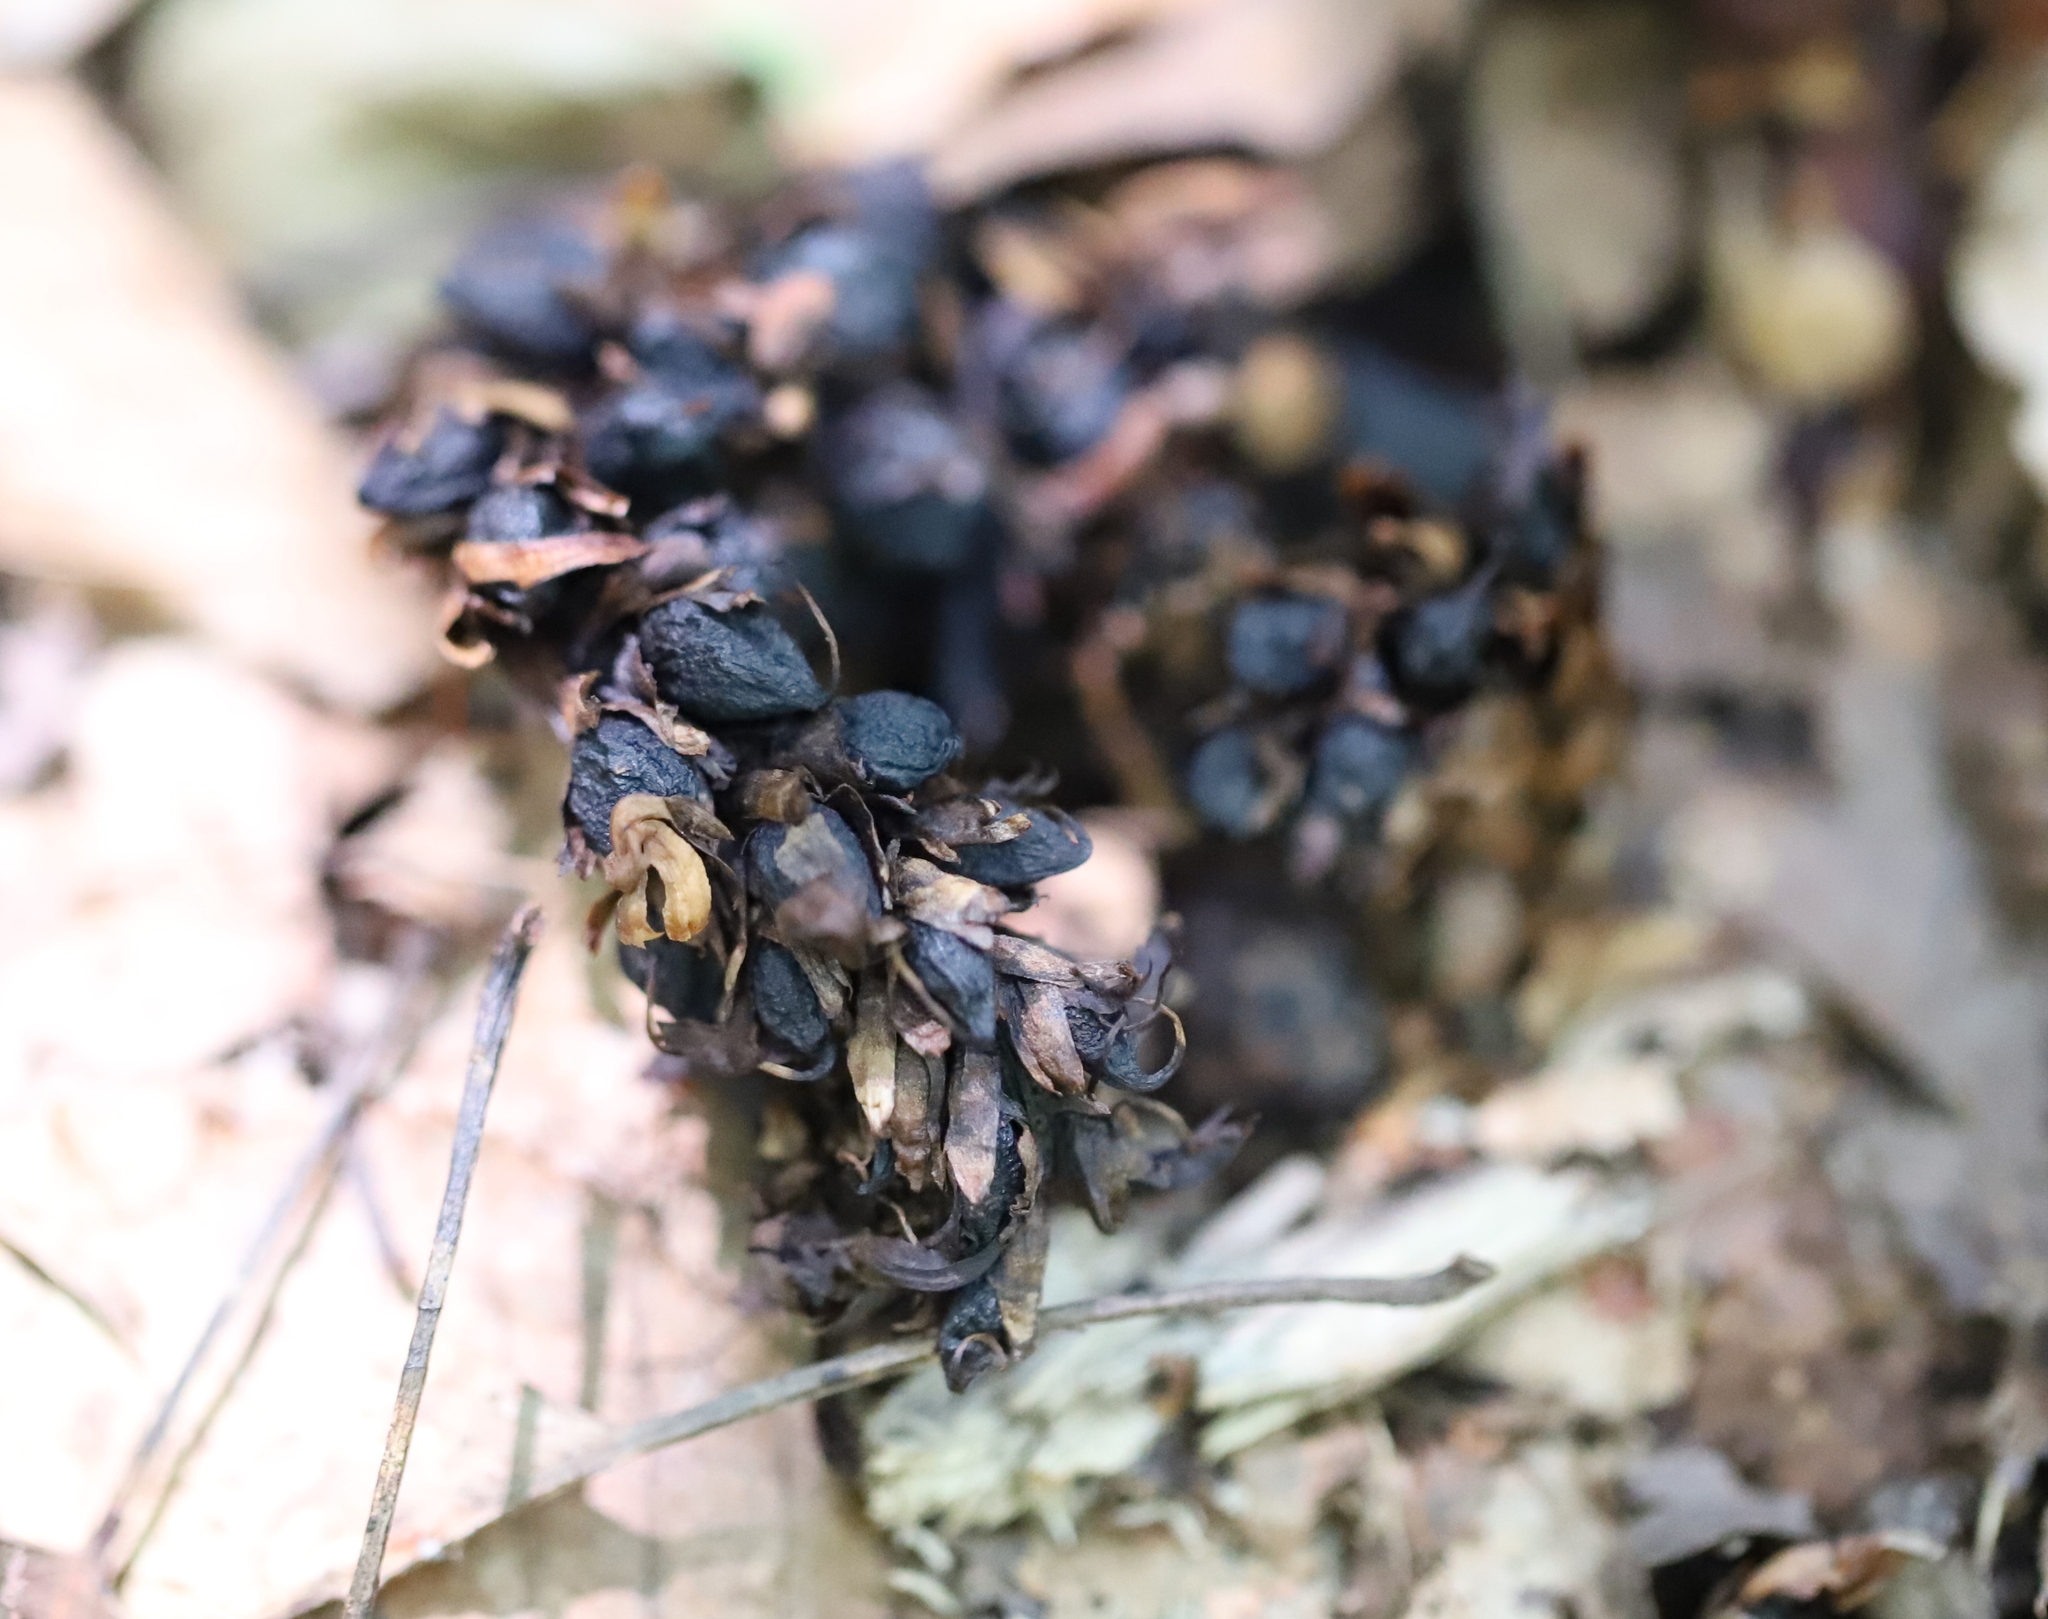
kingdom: Plantae
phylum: Tracheophyta
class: Magnoliopsida
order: Lamiales
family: Orobanchaceae
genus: Conopholis
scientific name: Conopholis americana
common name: American cancer-root
